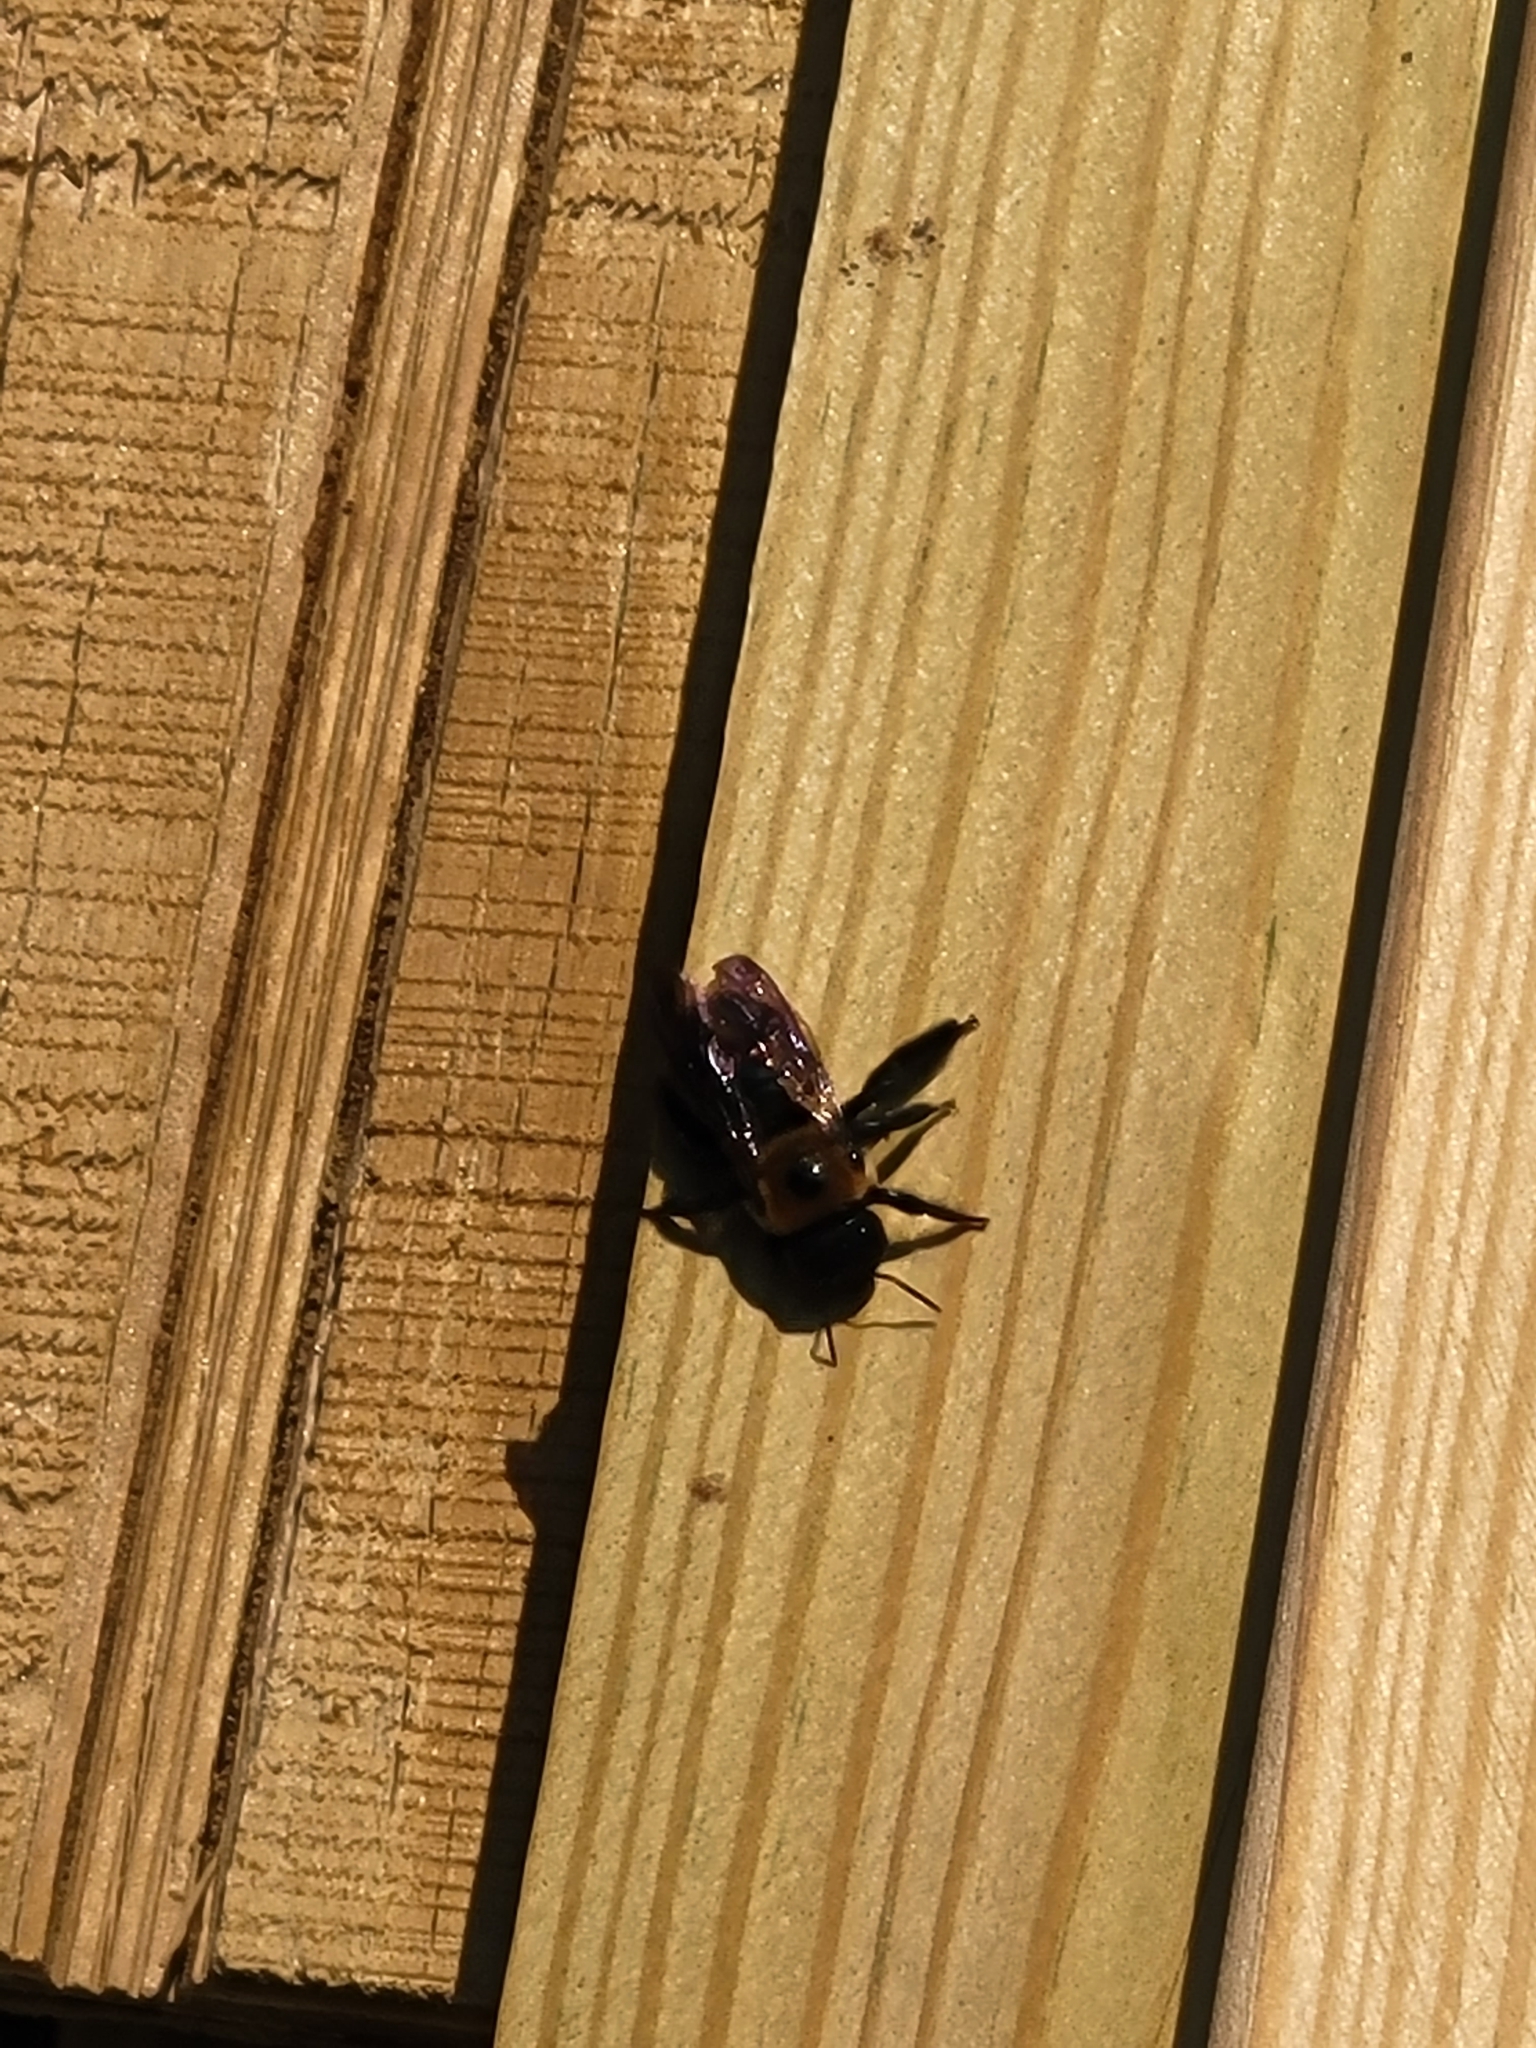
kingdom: Animalia
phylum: Arthropoda
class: Insecta
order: Hymenoptera
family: Apidae
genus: Xylocopa
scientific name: Xylocopa virginica
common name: Carpenter bee
